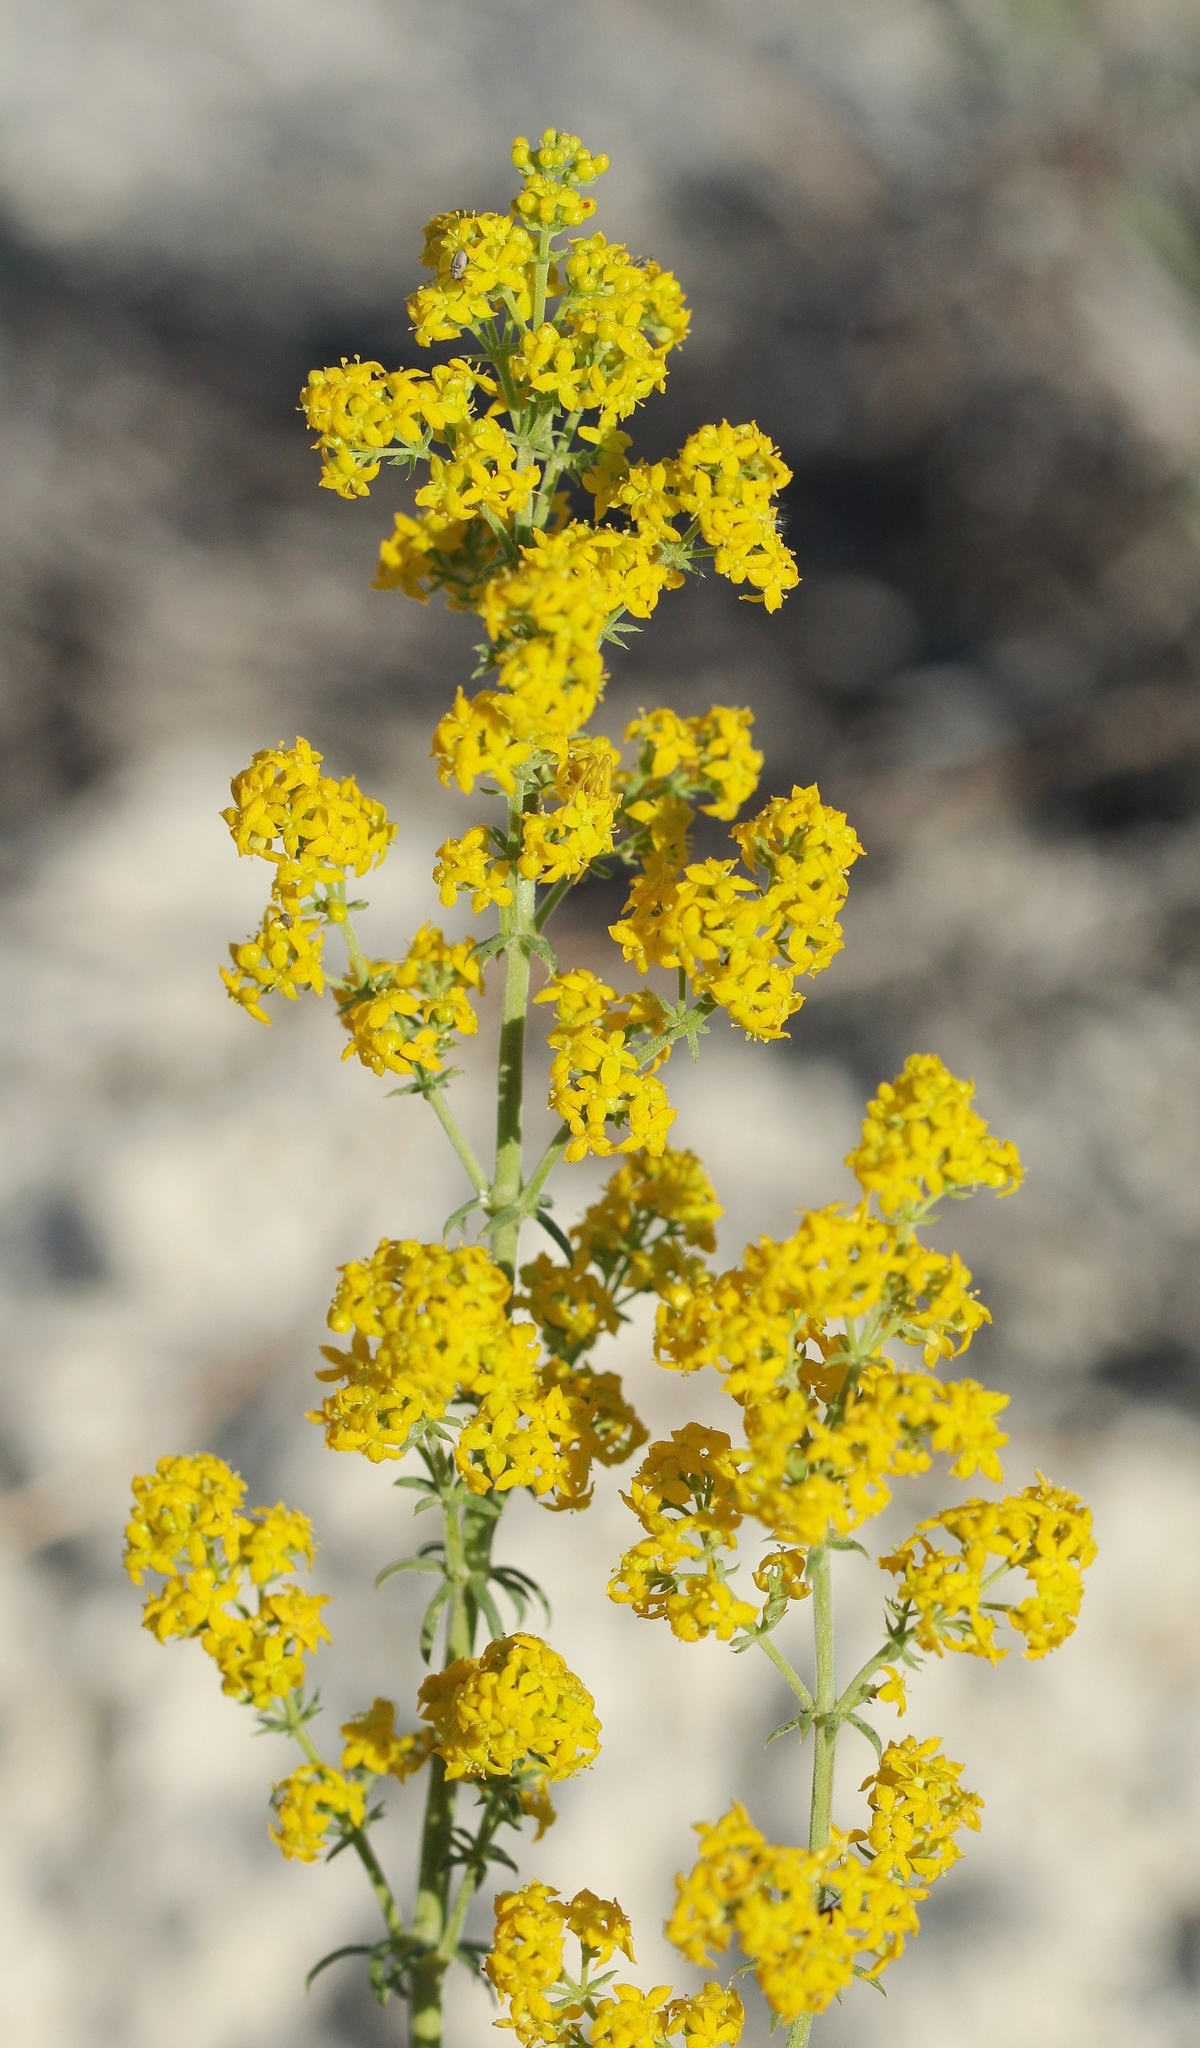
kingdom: Plantae
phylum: Tracheophyta
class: Magnoliopsida
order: Gentianales
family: Rubiaceae
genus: Galium
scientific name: Galium verum
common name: Lady's bedstraw
